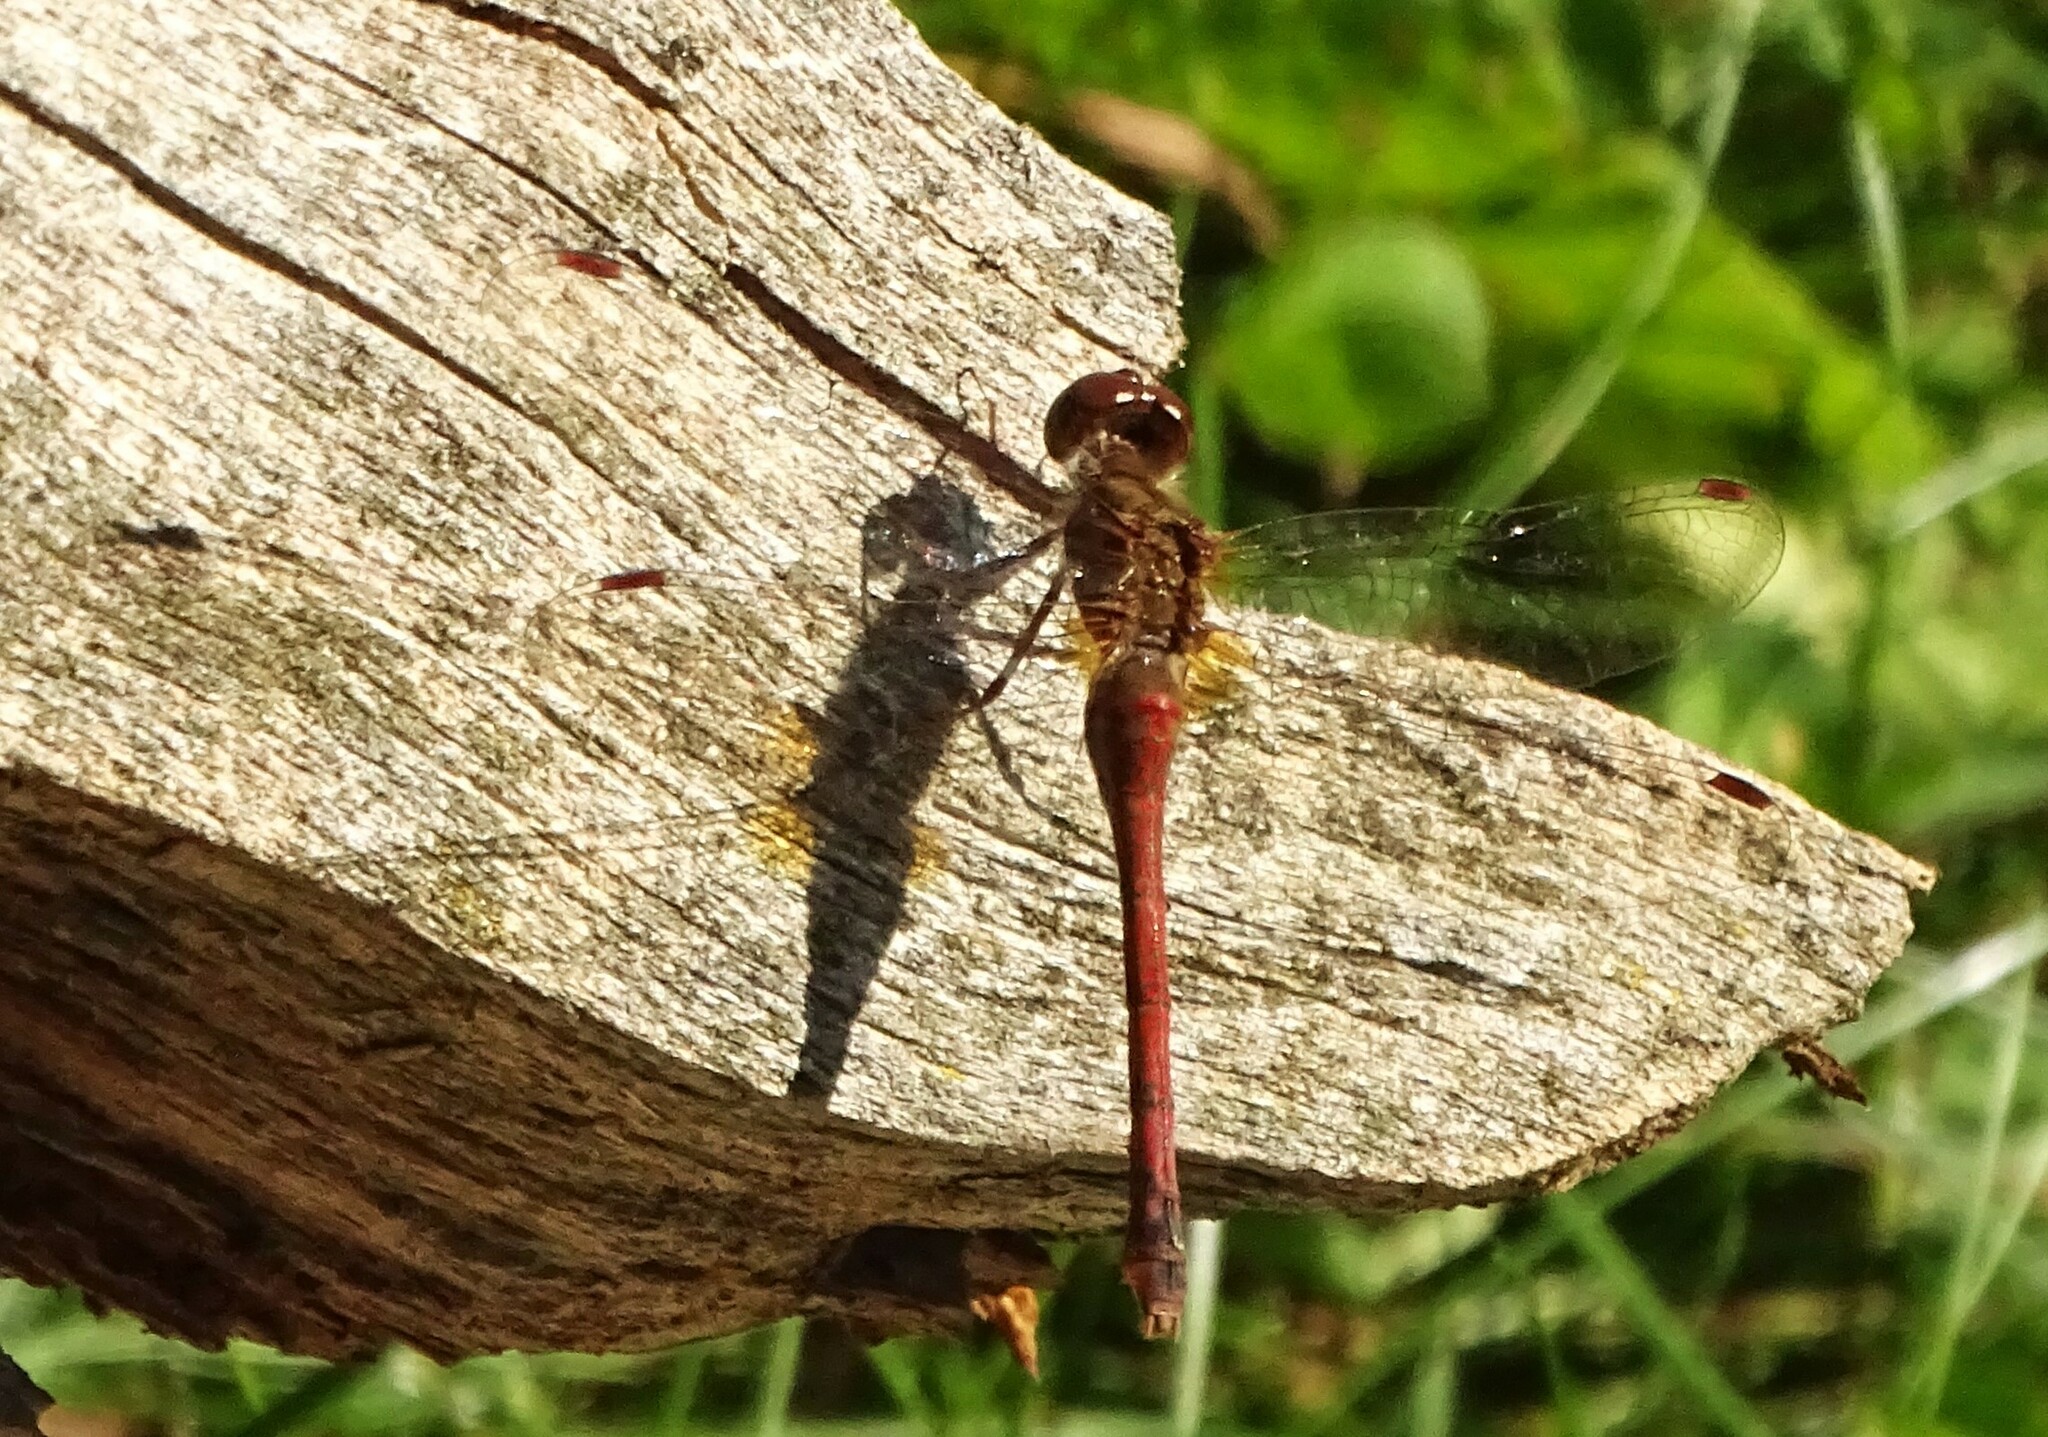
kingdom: Animalia
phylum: Arthropoda
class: Insecta
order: Odonata
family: Libellulidae
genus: Sympetrum
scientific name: Sympetrum vicinum
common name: Autumn meadowhawk
